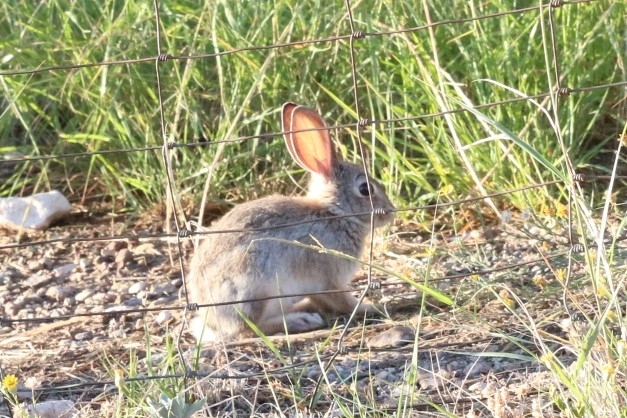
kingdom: Animalia
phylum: Chordata
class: Mammalia
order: Lagomorpha
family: Leporidae
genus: Sylvilagus
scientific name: Sylvilagus audubonii
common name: Desert cottontail
